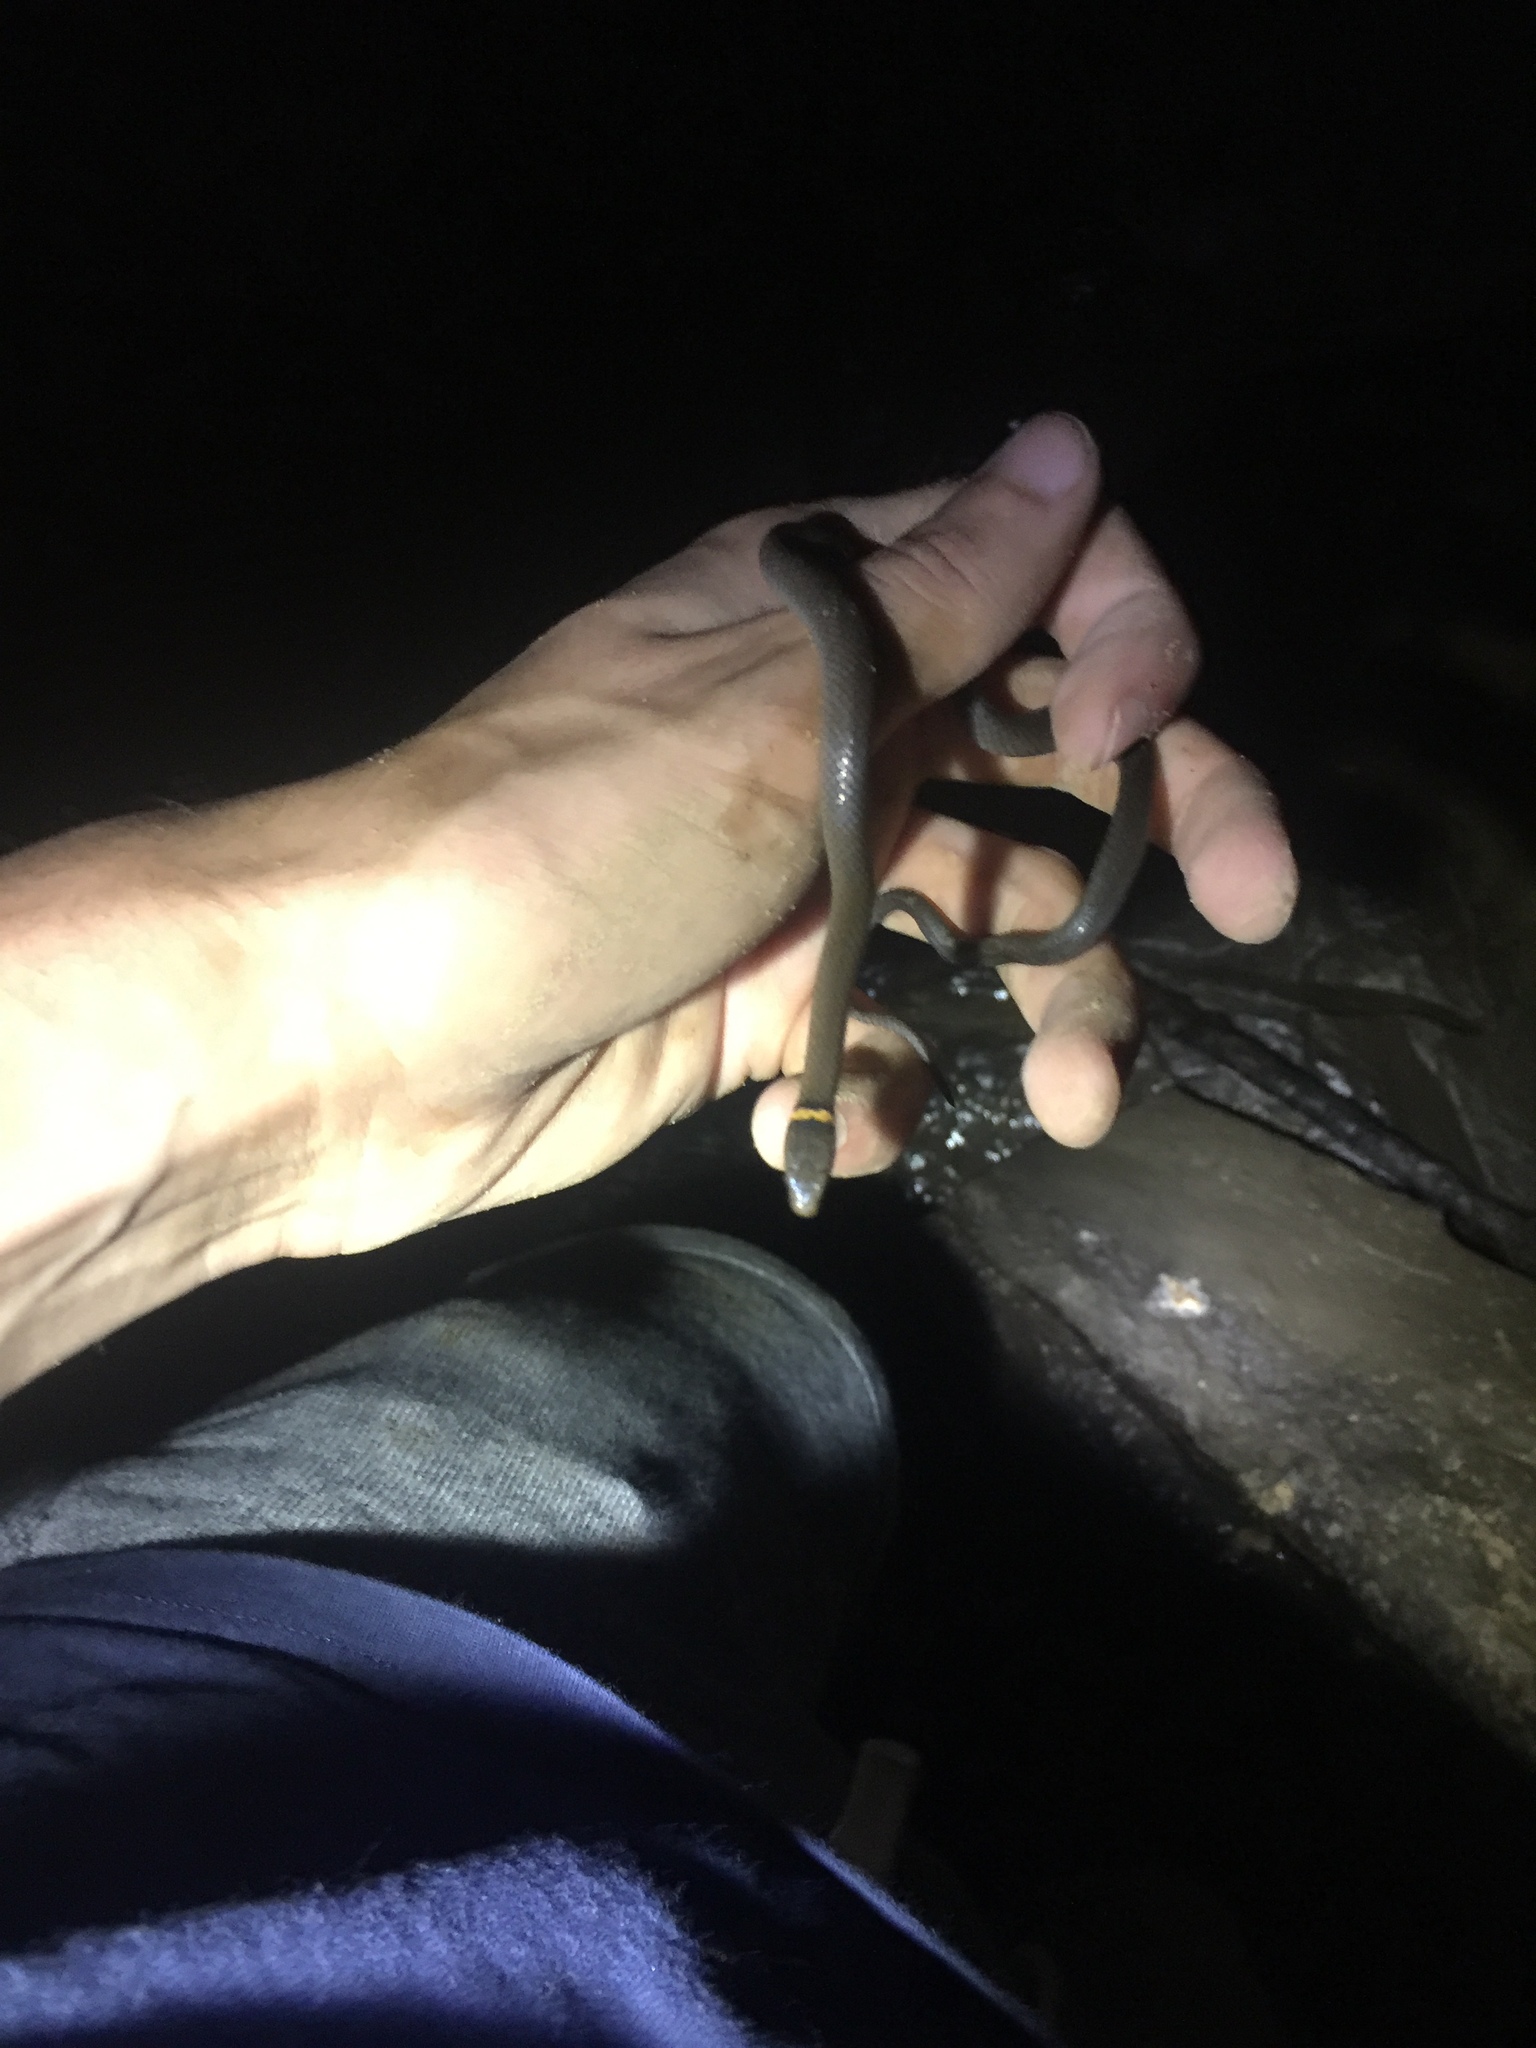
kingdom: Animalia
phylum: Chordata
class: Squamata
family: Colubridae
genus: Diadophis
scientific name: Diadophis punctatus
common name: Ringneck snake
